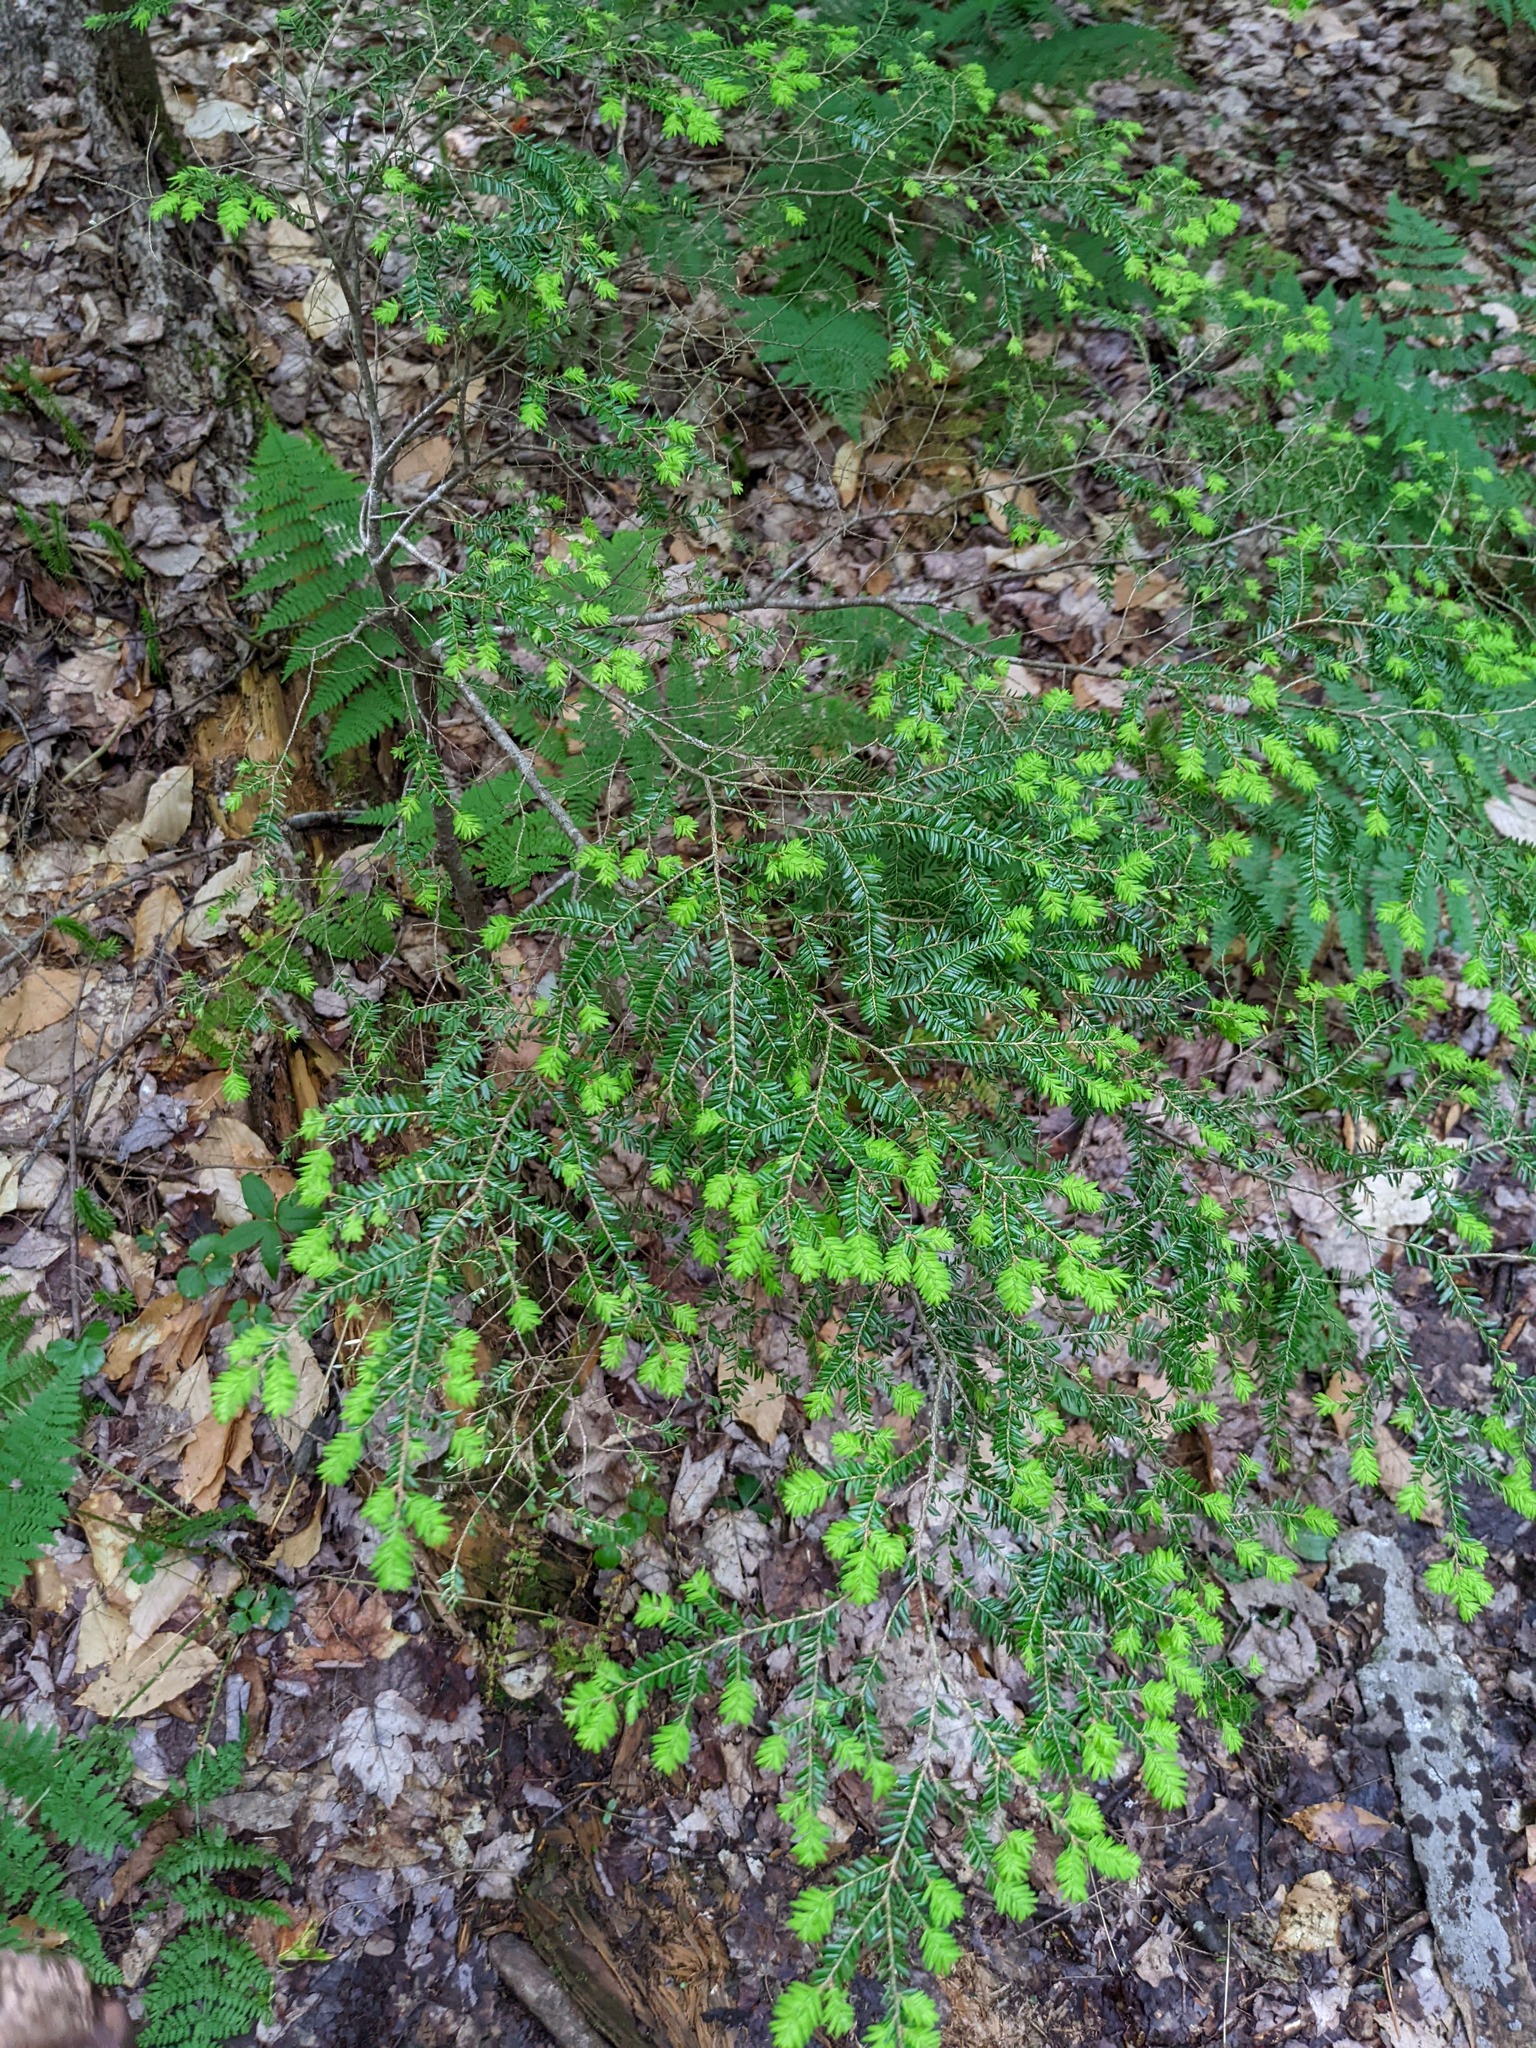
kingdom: Plantae
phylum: Tracheophyta
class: Pinopsida
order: Pinales
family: Pinaceae
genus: Tsuga
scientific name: Tsuga canadensis
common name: Eastern hemlock
